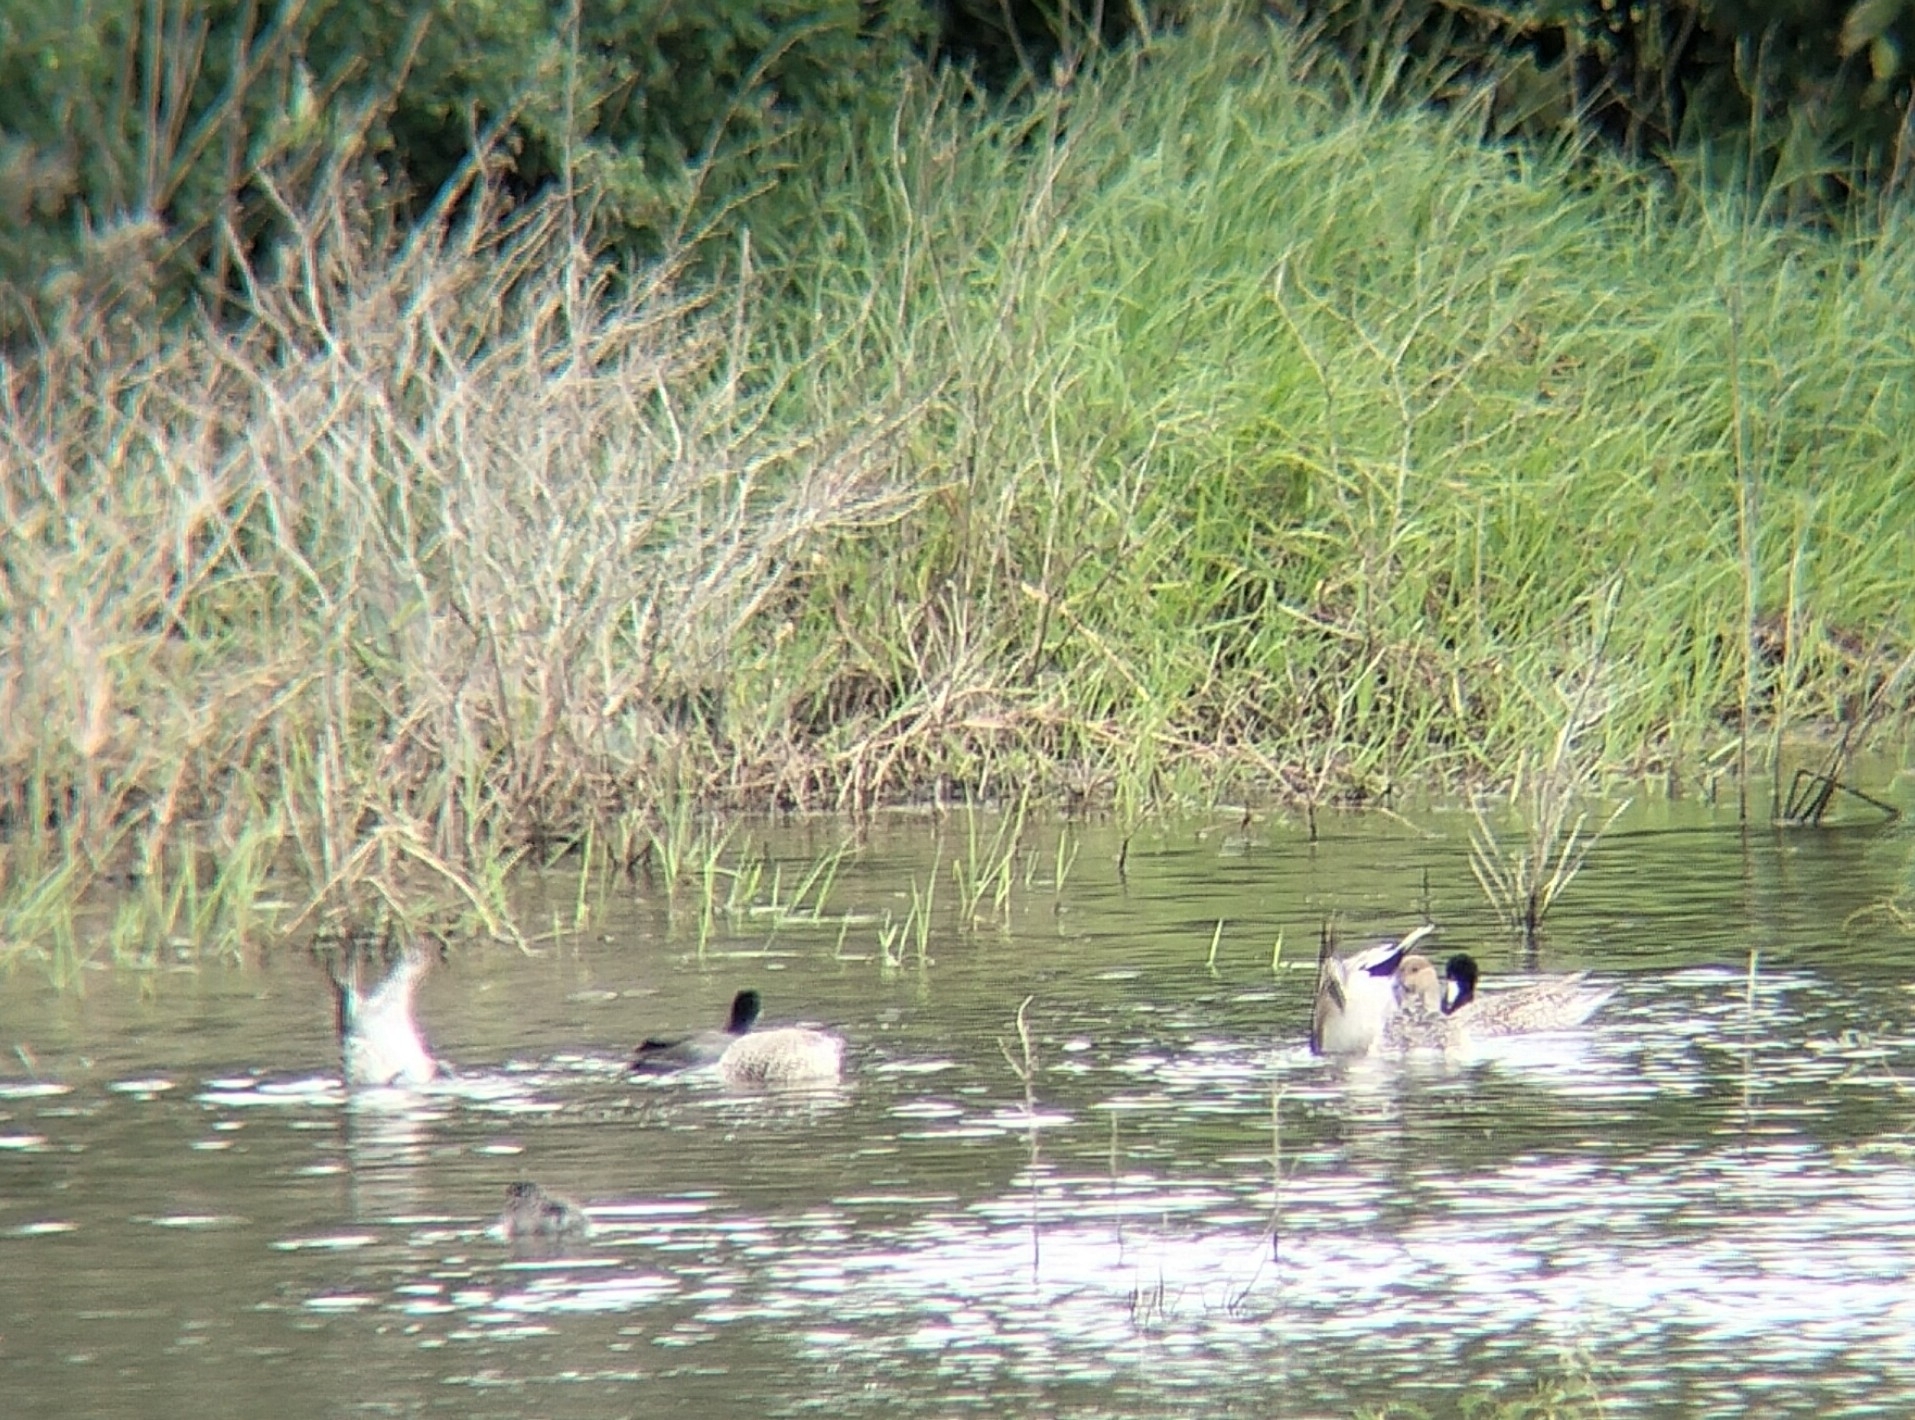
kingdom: Animalia
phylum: Chordata
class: Aves
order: Anseriformes
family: Anatidae
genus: Anas
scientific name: Anas acuta
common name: Northern pintail
